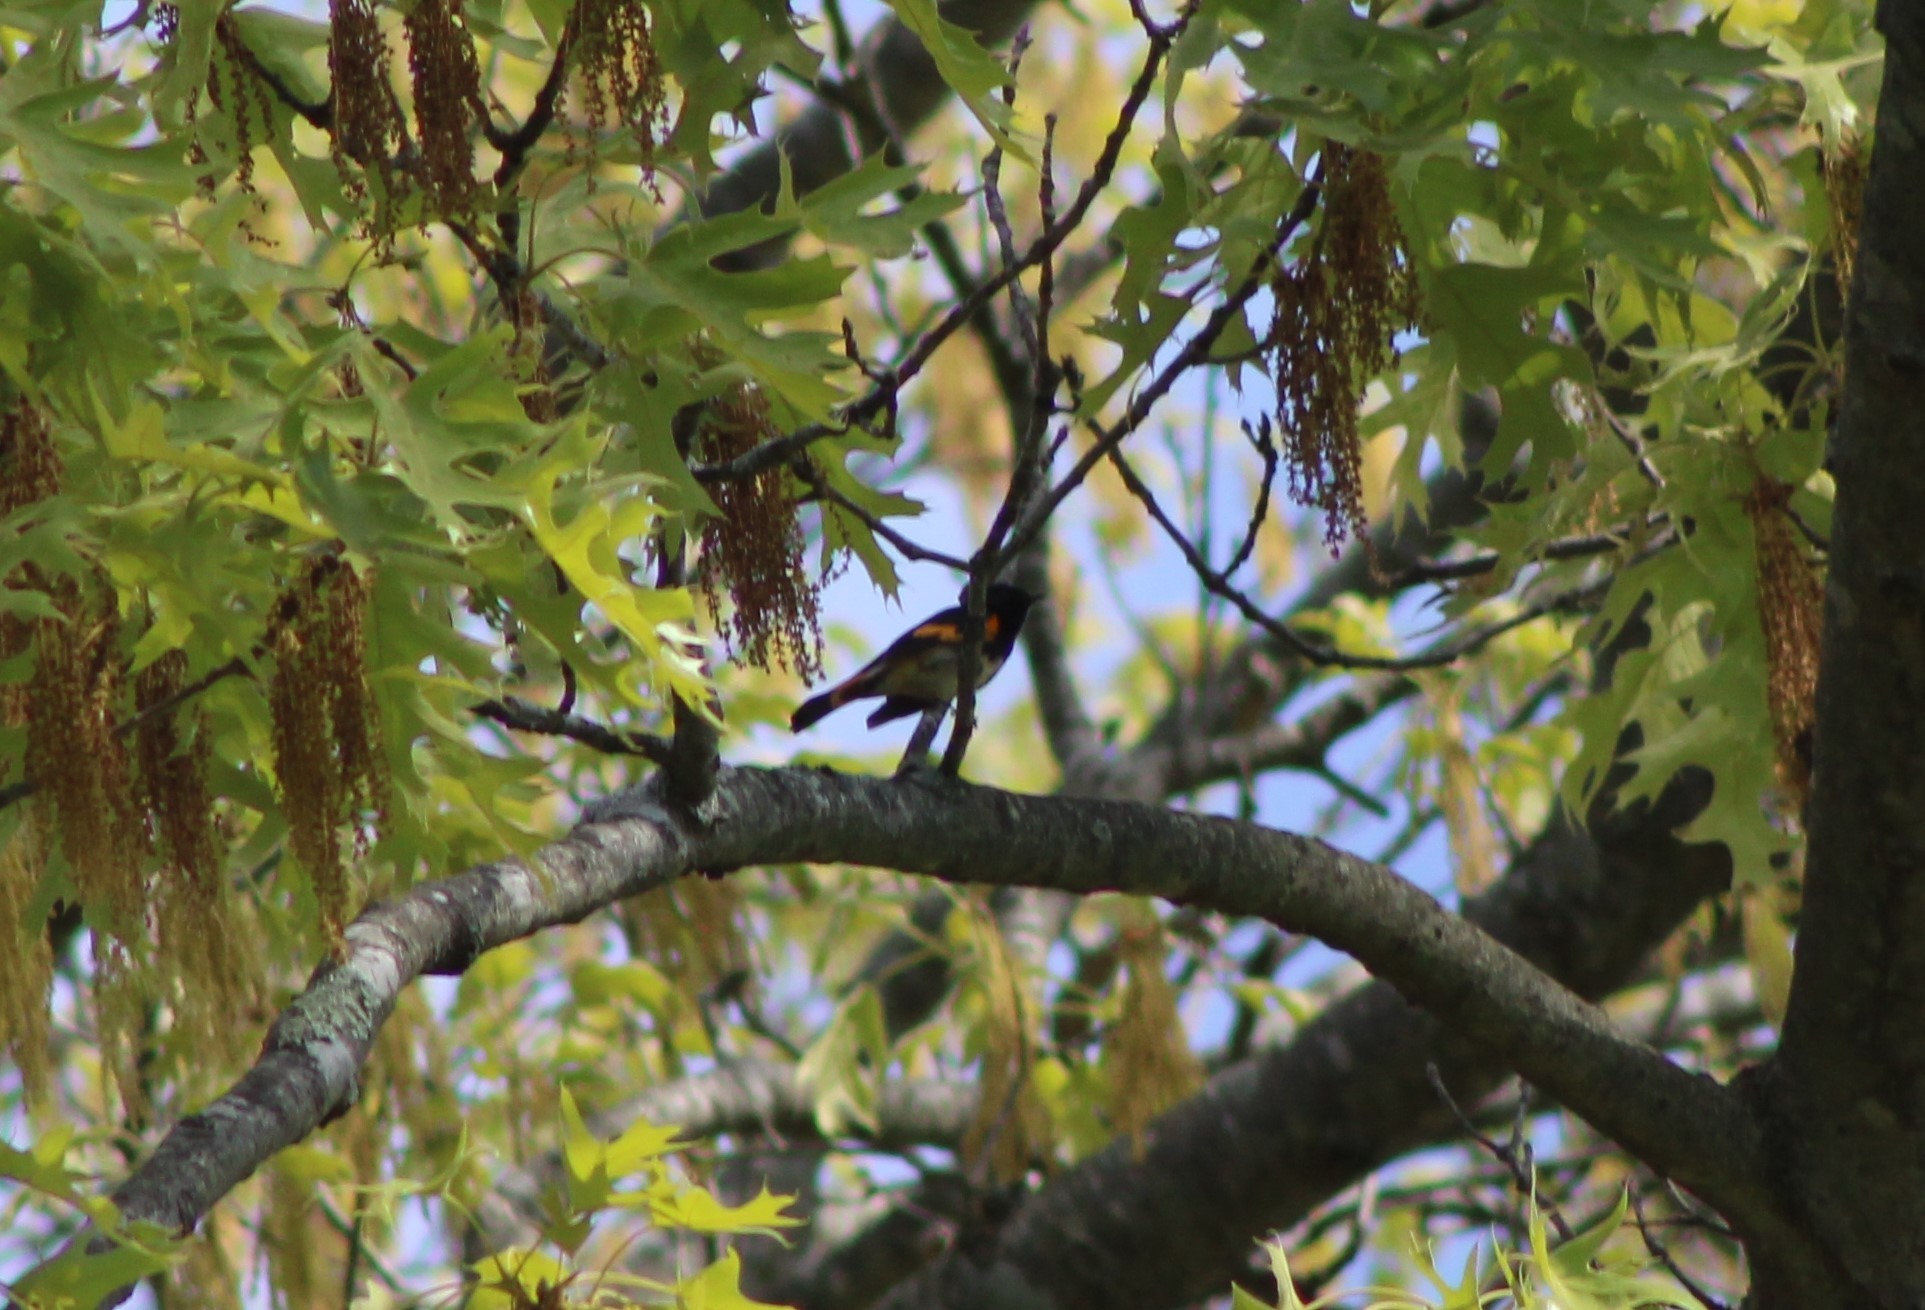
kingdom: Animalia
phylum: Chordata
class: Aves
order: Passeriformes
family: Parulidae
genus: Setophaga
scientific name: Setophaga ruticilla
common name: American redstart
